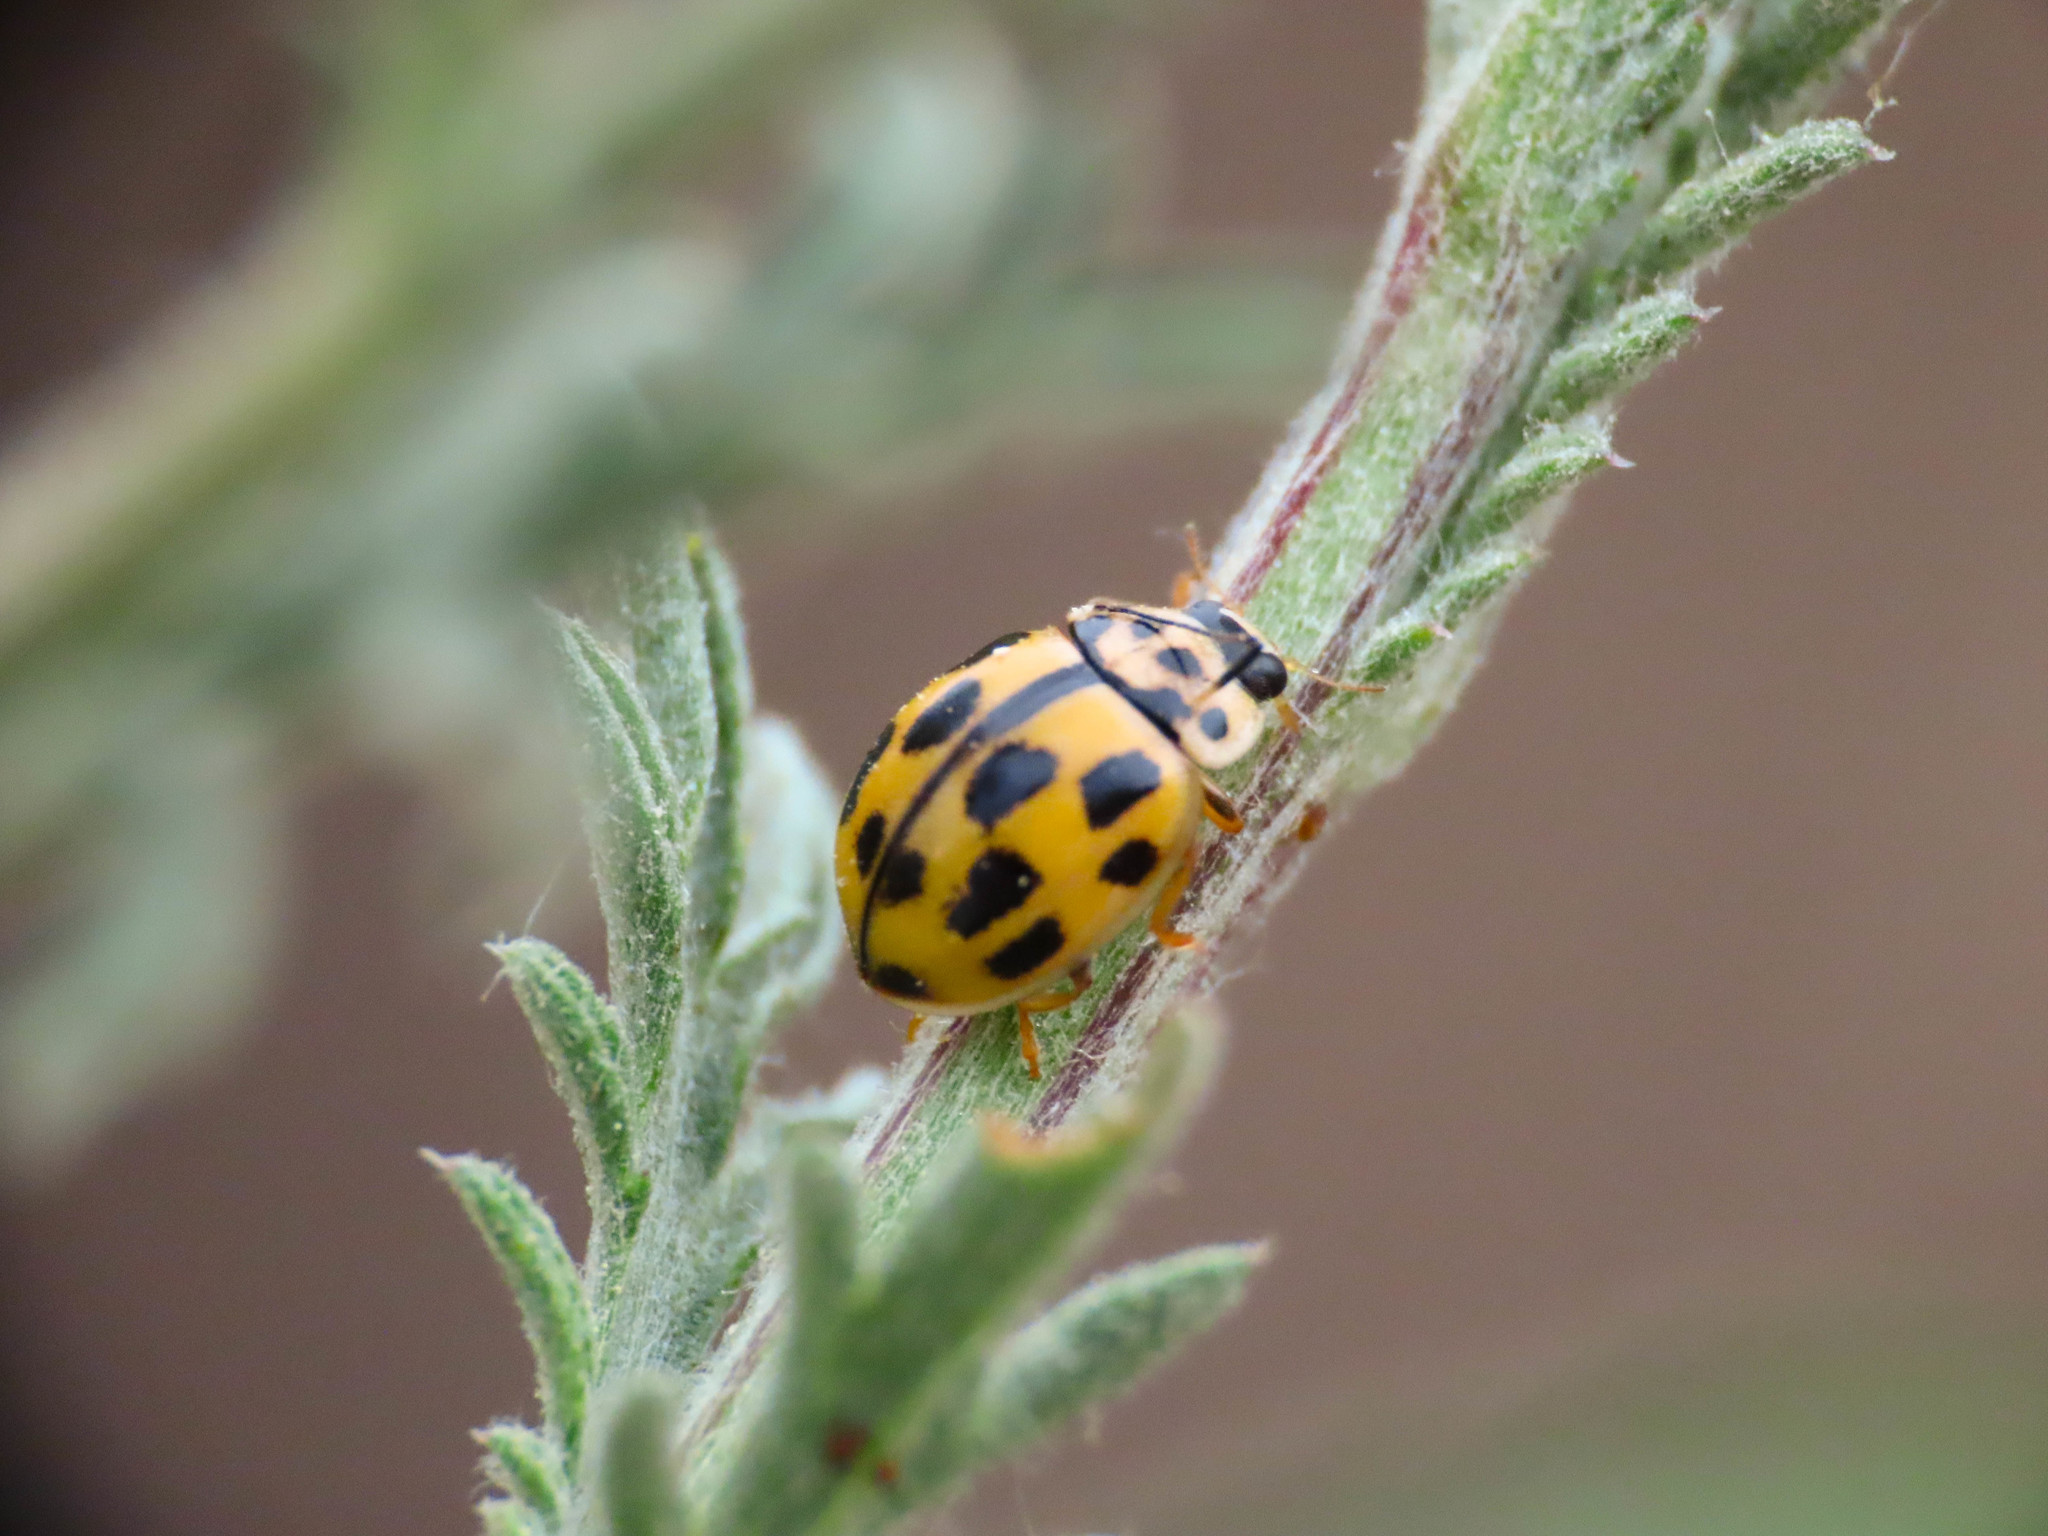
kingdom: Animalia
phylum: Arthropoda
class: Insecta
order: Coleoptera
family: Coccinellidae
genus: Propylaea
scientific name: Propylaea quatuordecimpunctata
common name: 14-spotted ladybird beetle
